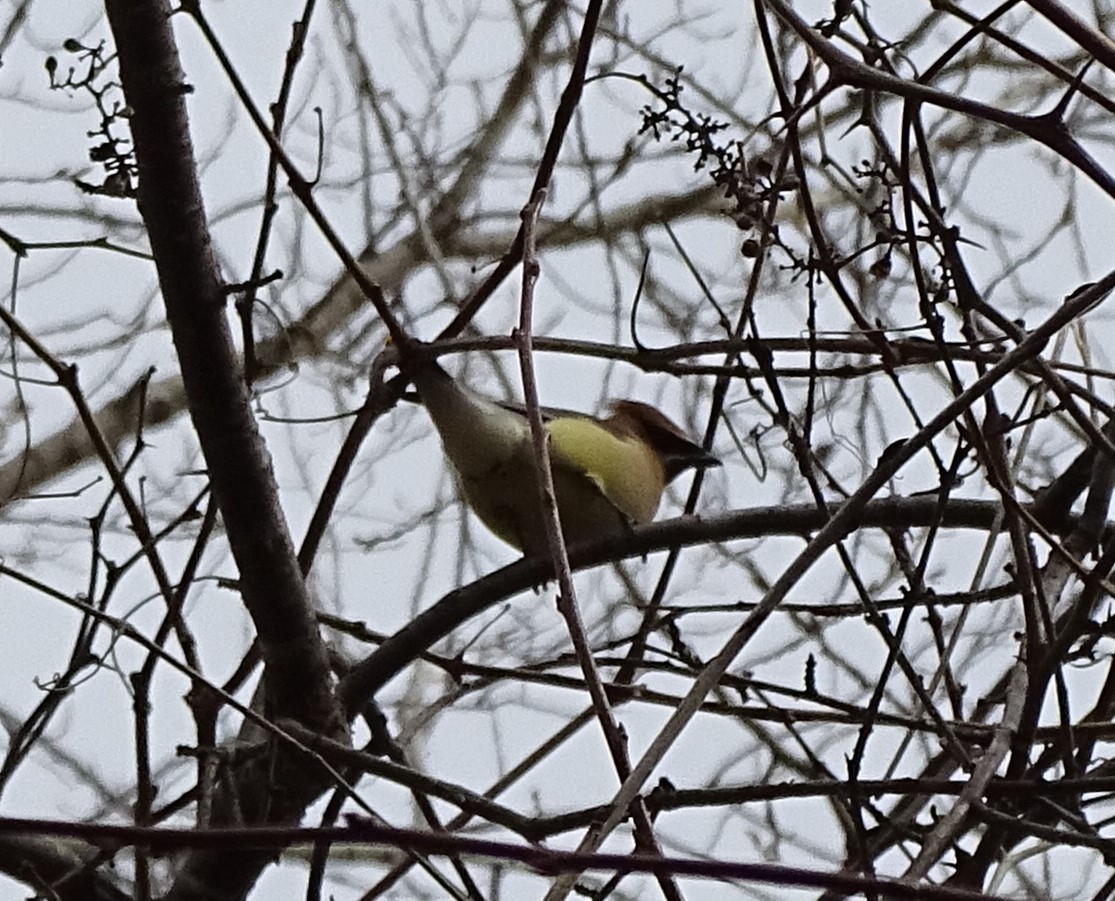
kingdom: Animalia
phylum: Chordata
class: Aves
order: Passeriformes
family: Bombycillidae
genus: Bombycilla
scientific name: Bombycilla cedrorum
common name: Cedar waxwing
